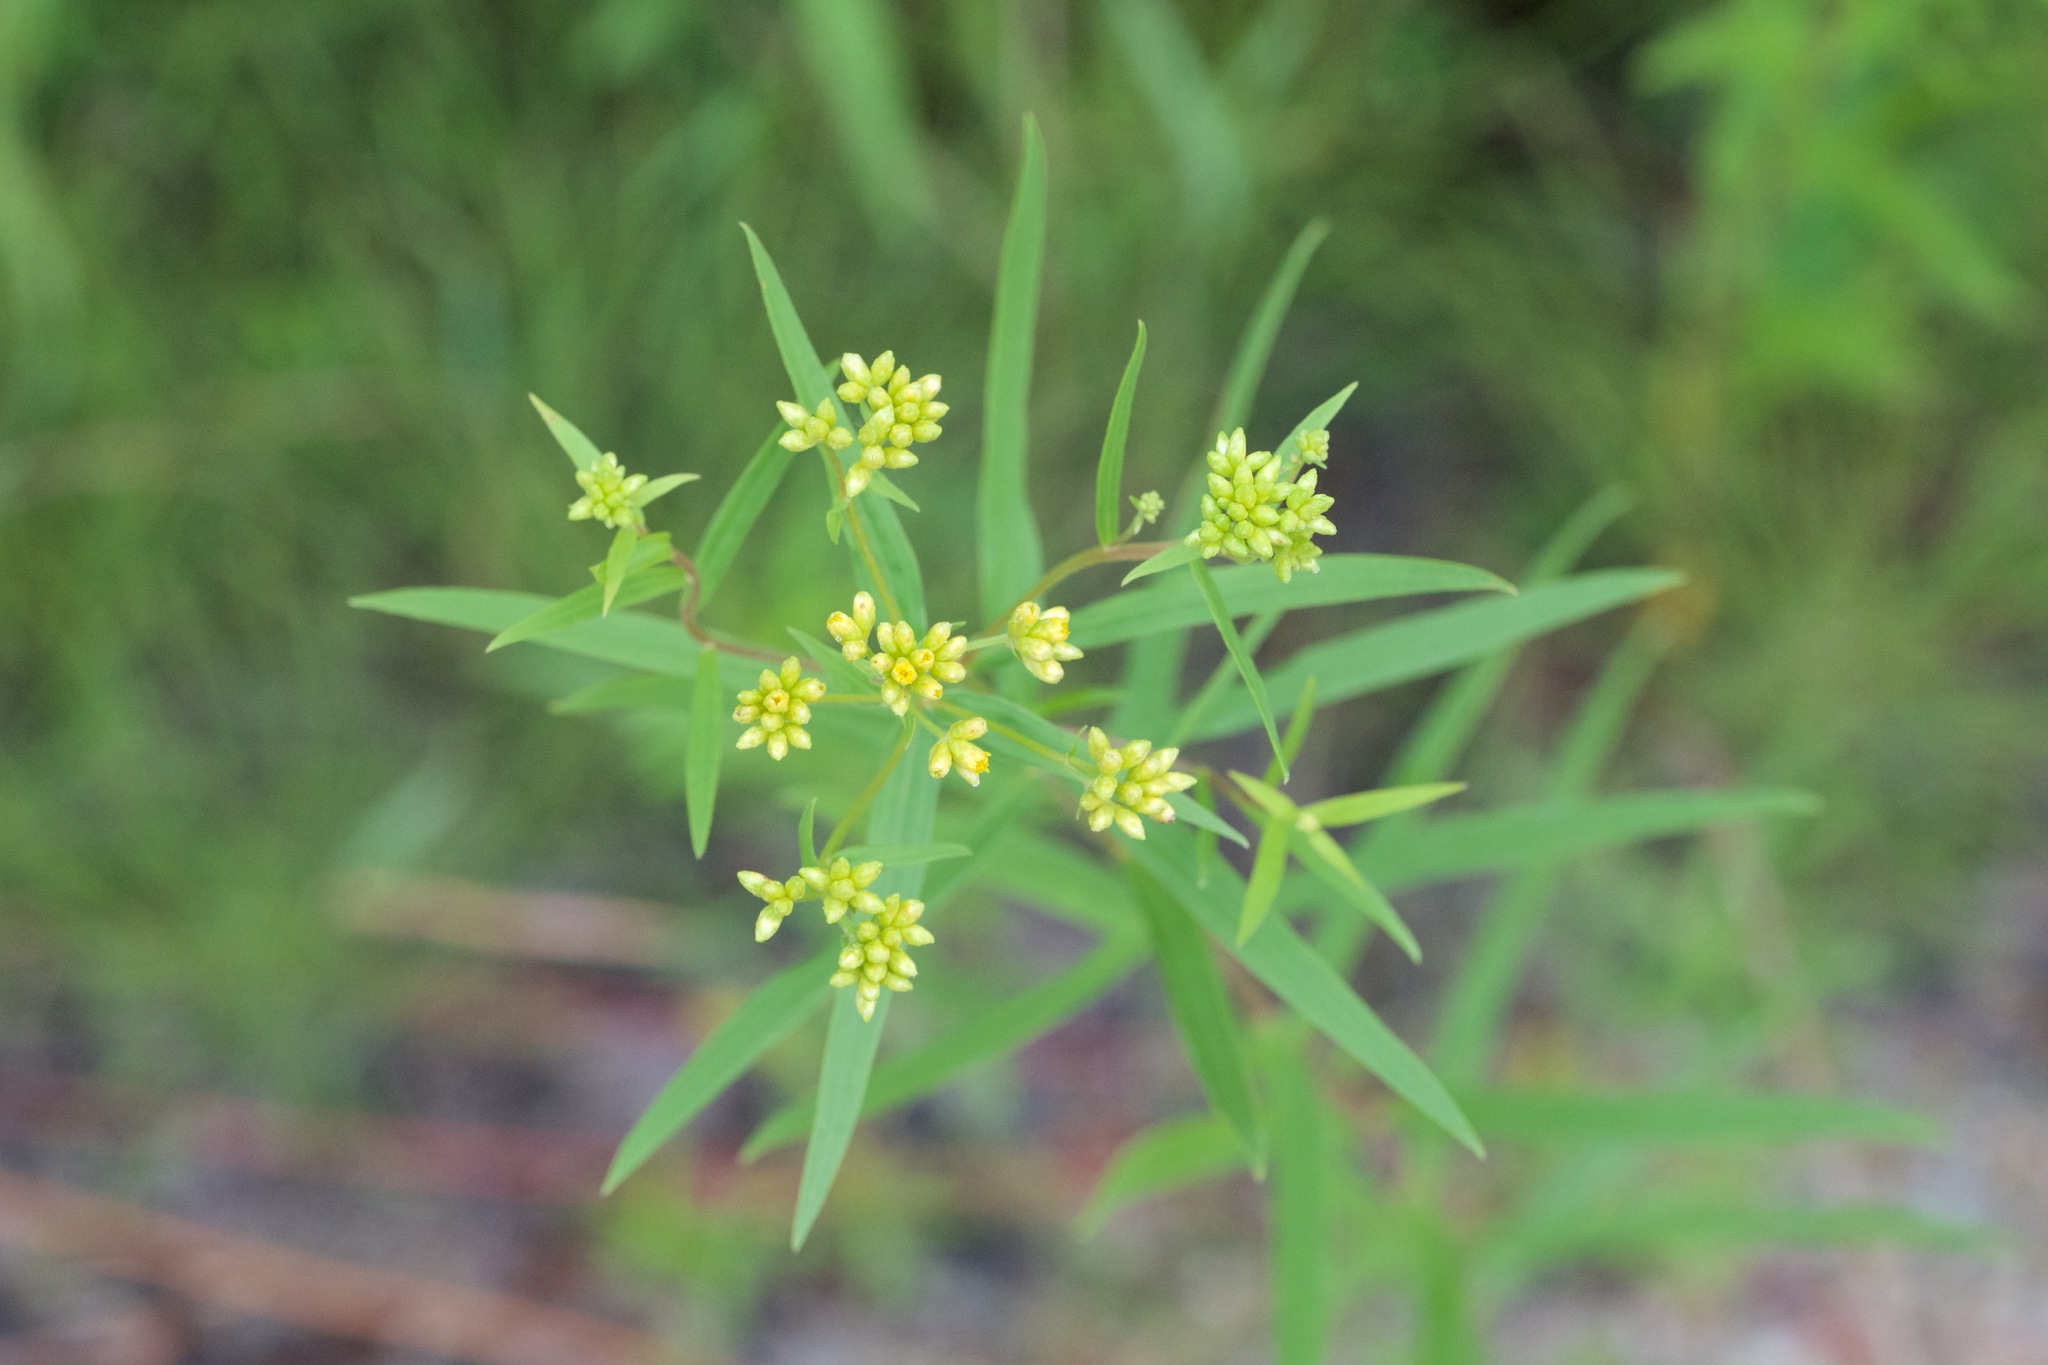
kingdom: Plantae
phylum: Tracheophyta
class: Magnoliopsida
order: Asterales
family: Asteraceae
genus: Euthamia
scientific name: Euthamia graminifolia
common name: Common goldentop
